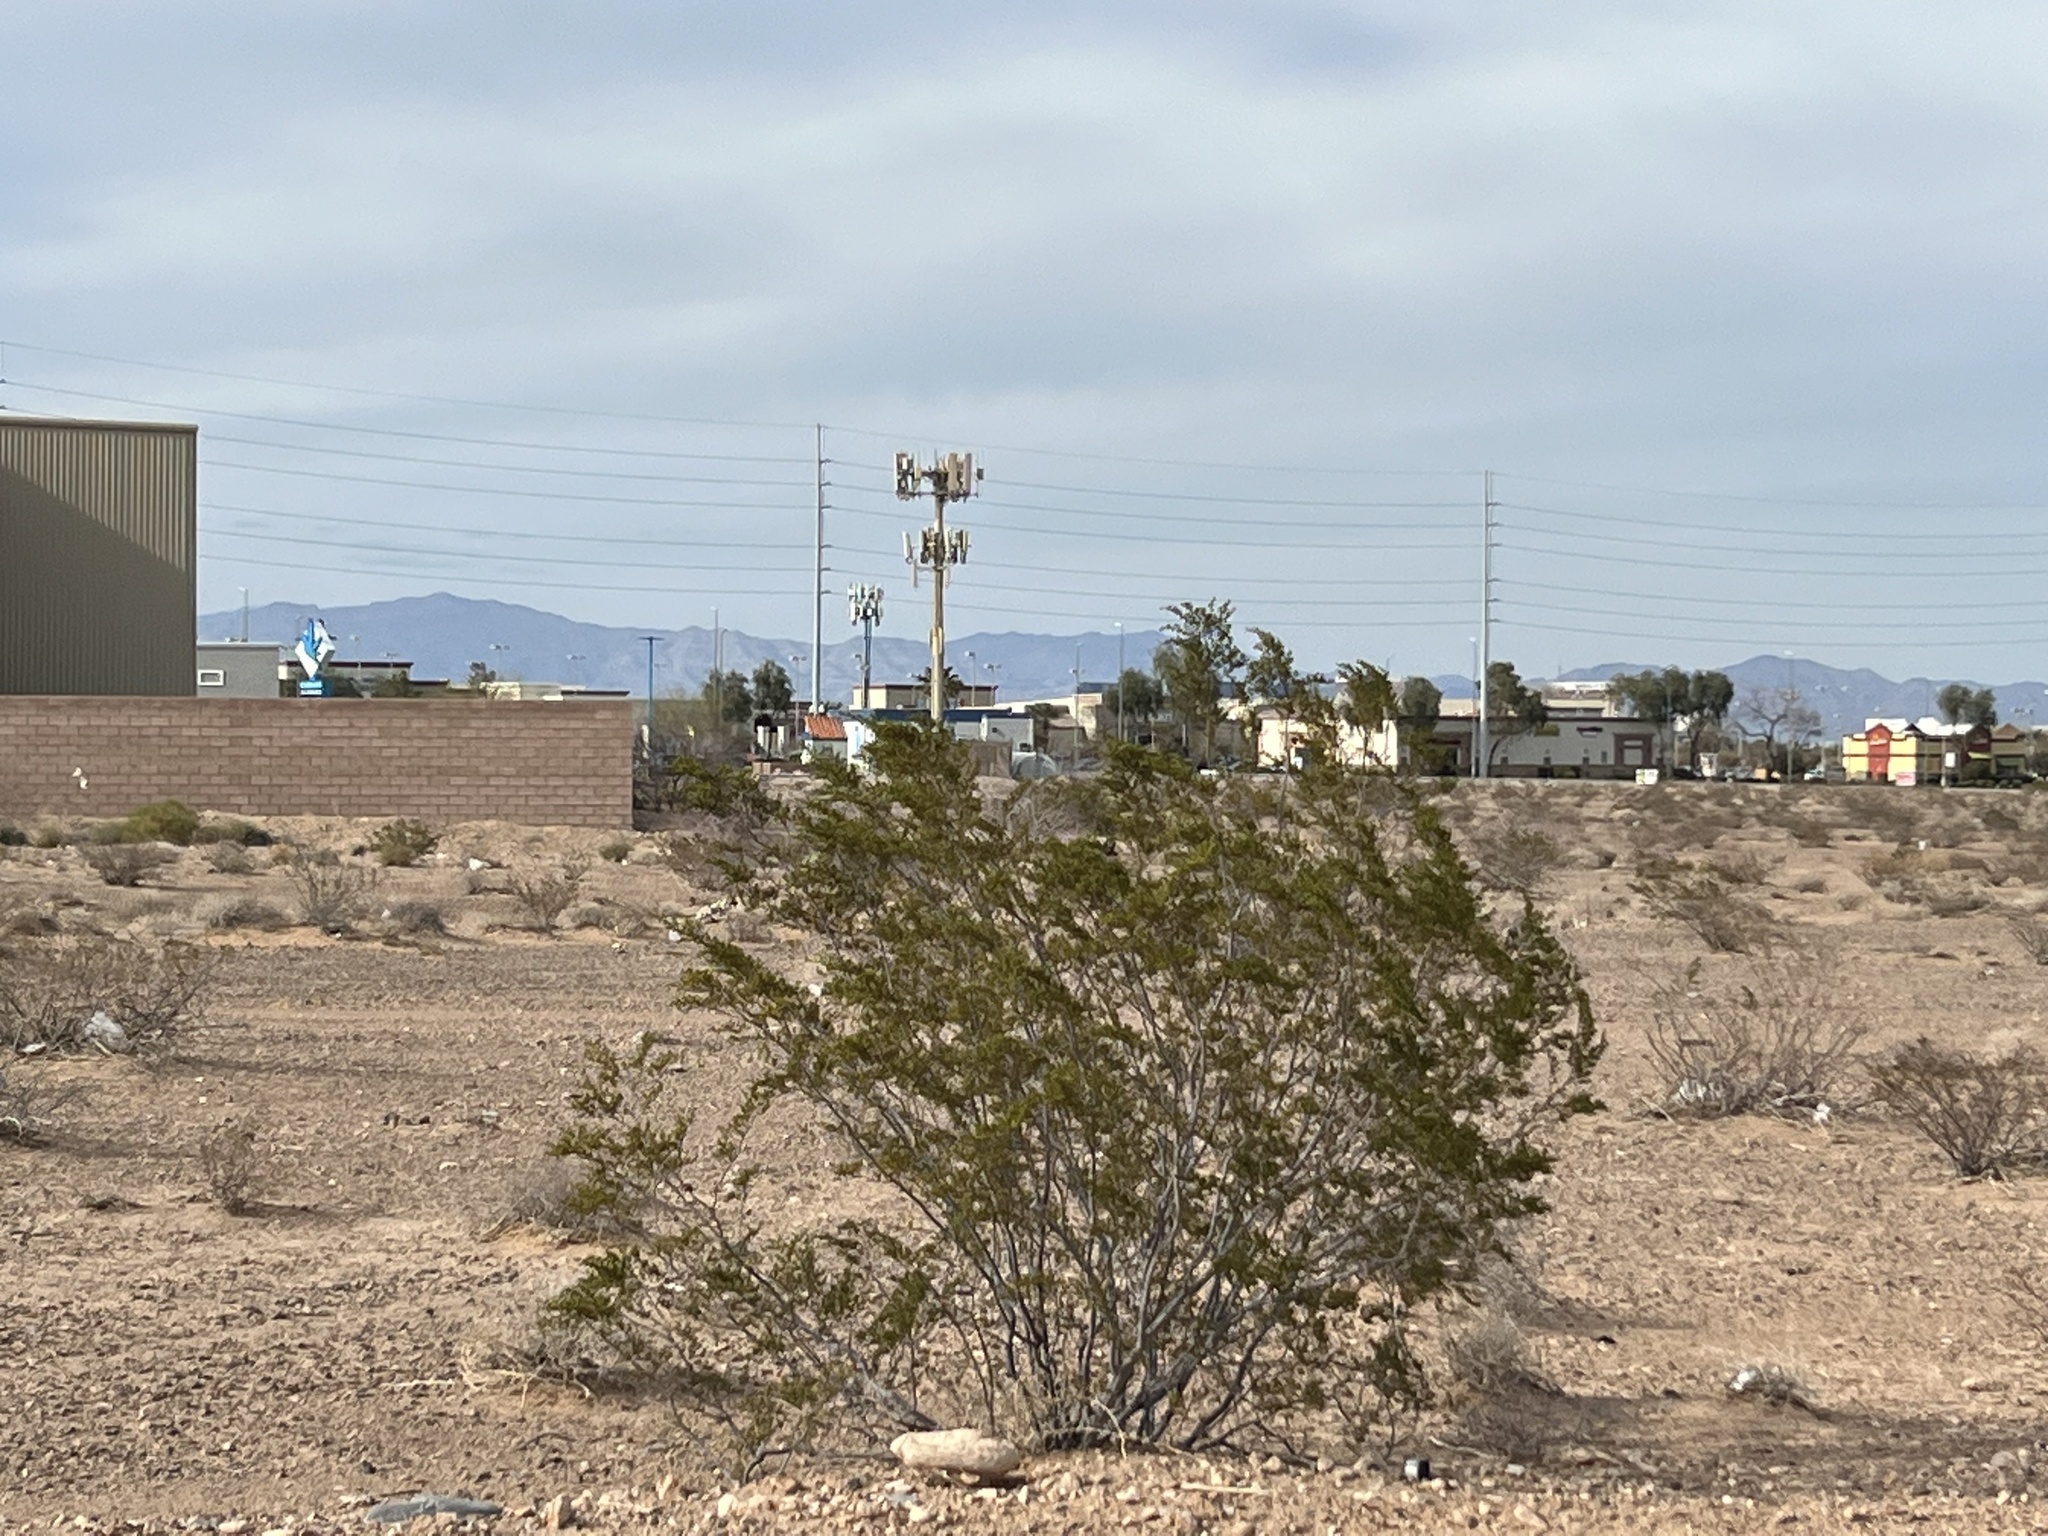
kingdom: Plantae
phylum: Tracheophyta
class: Magnoliopsida
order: Zygophyllales
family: Zygophyllaceae
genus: Larrea
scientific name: Larrea tridentata
